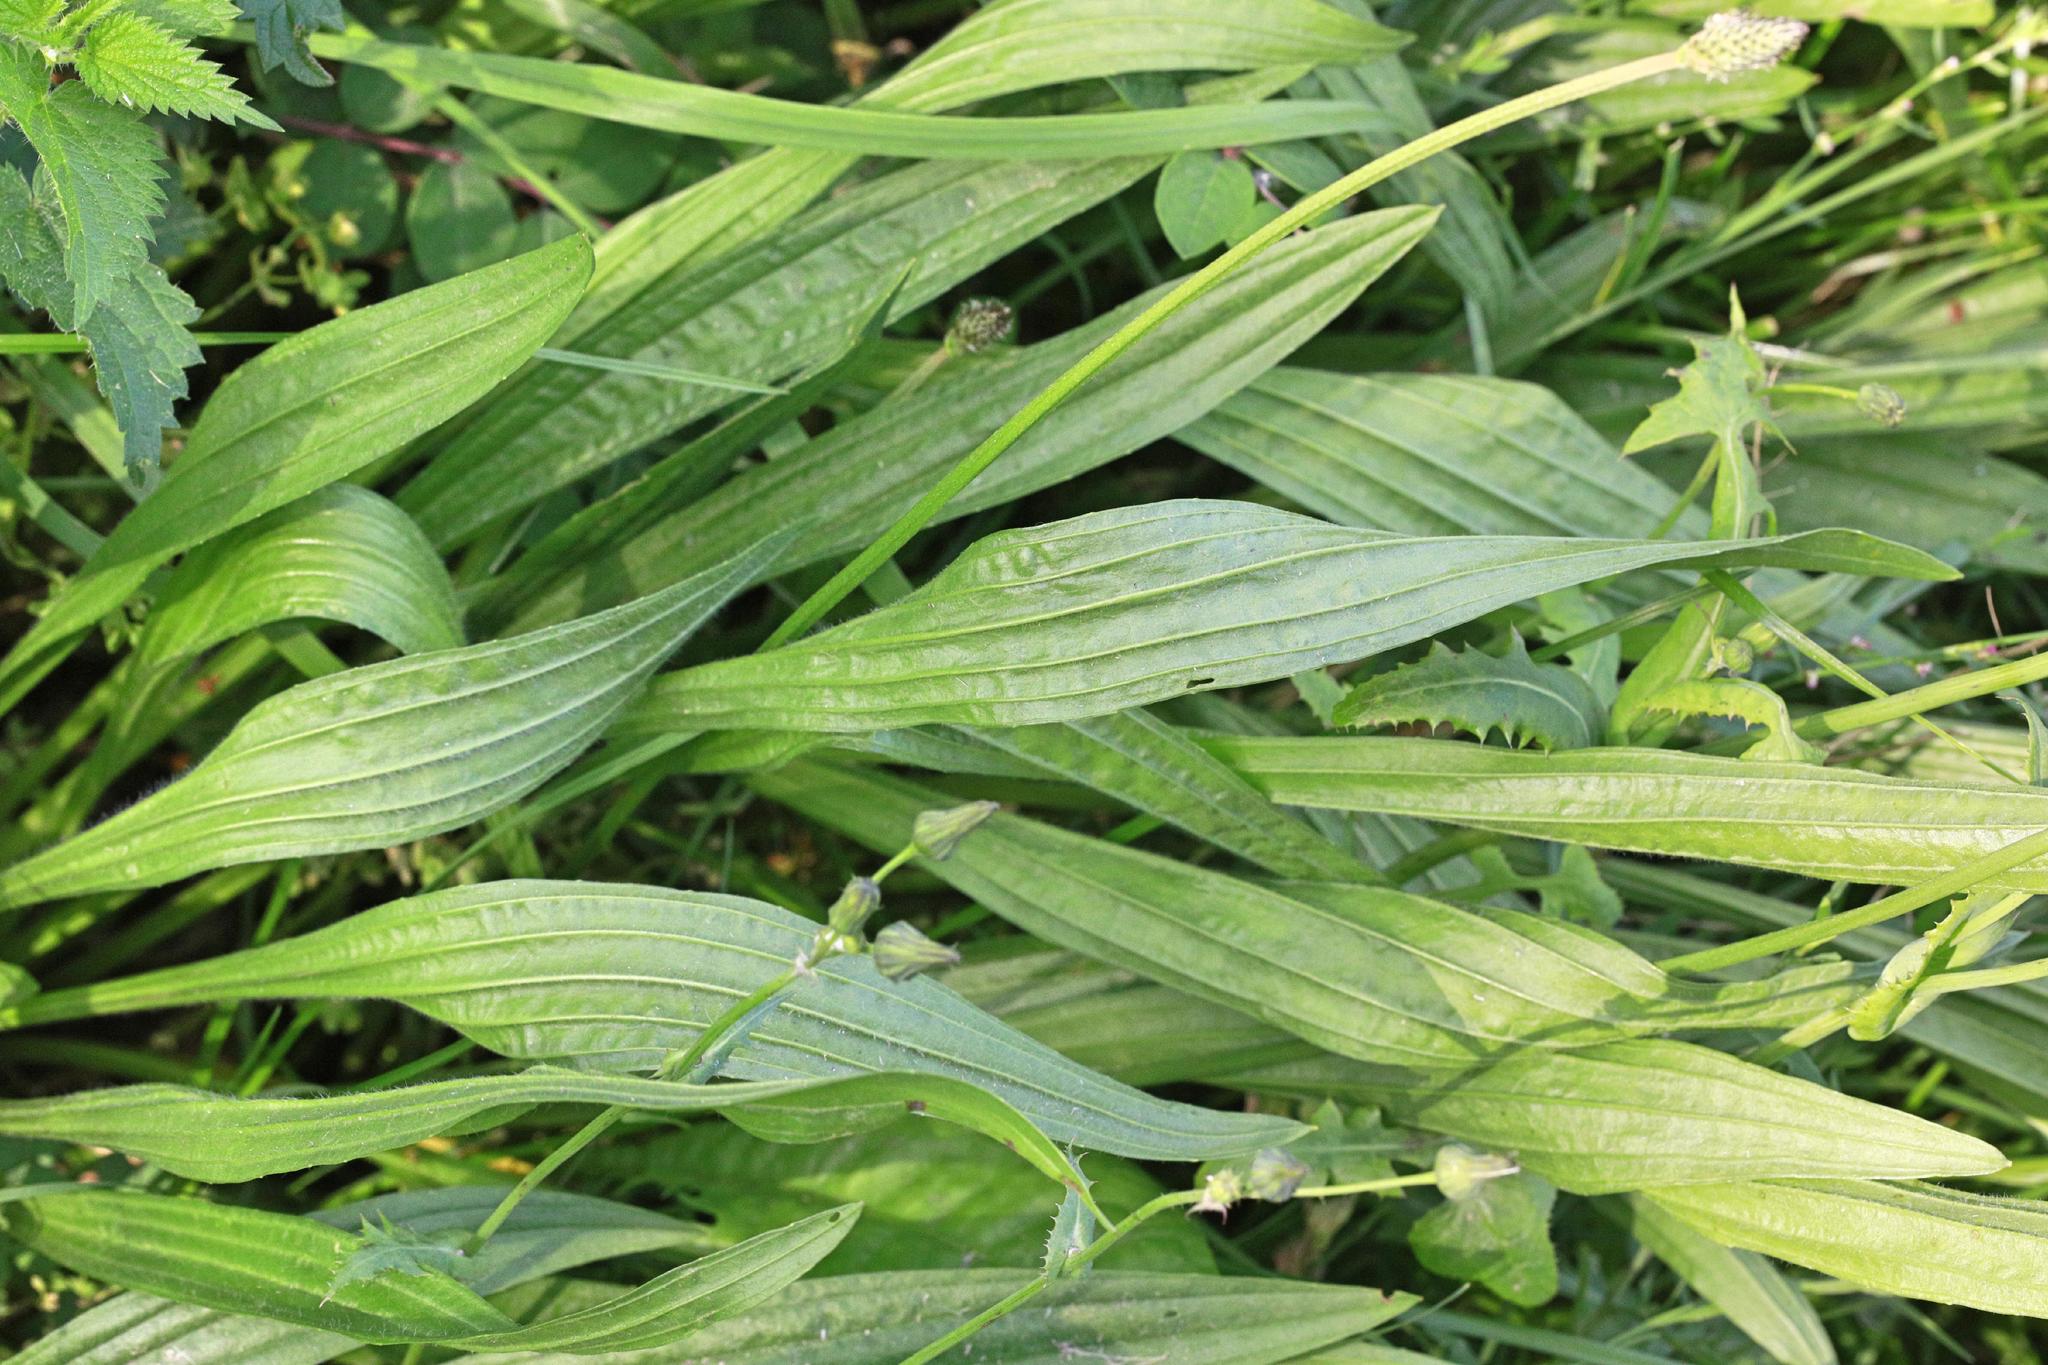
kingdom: Plantae
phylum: Tracheophyta
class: Magnoliopsida
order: Lamiales
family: Plantaginaceae
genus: Plantago
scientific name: Plantago lanceolata
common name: Ribwort plantain
